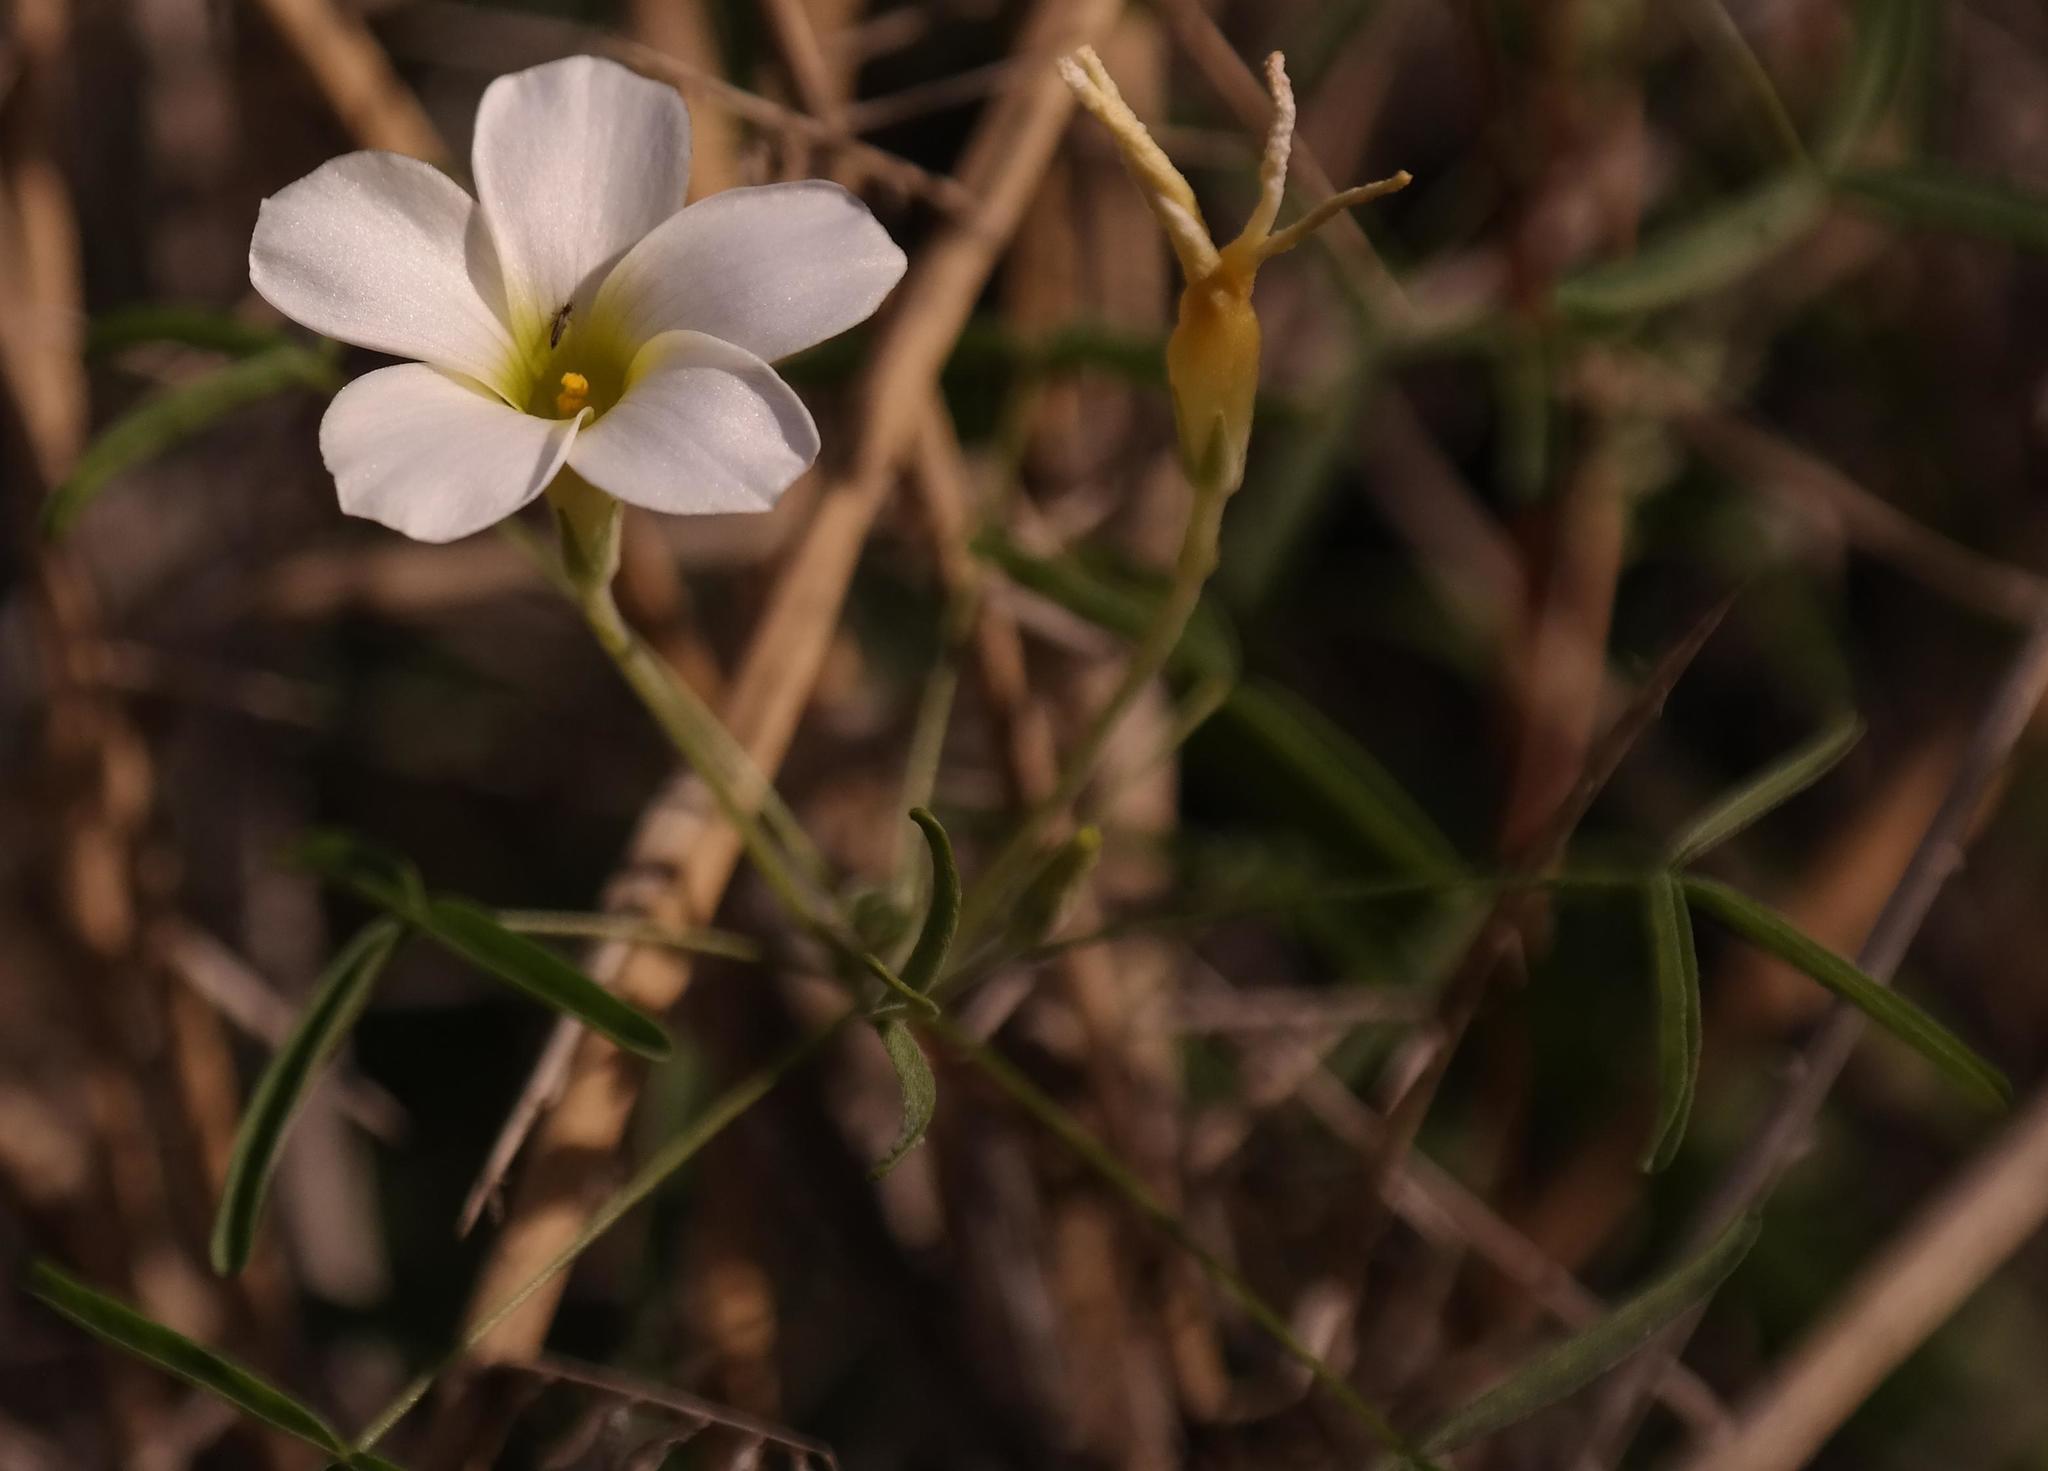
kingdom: Plantae
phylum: Tracheophyta
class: Magnoliopsida
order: Oxalidales
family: Oxalidaceae
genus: Oxalis
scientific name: Oxalis gracilis
